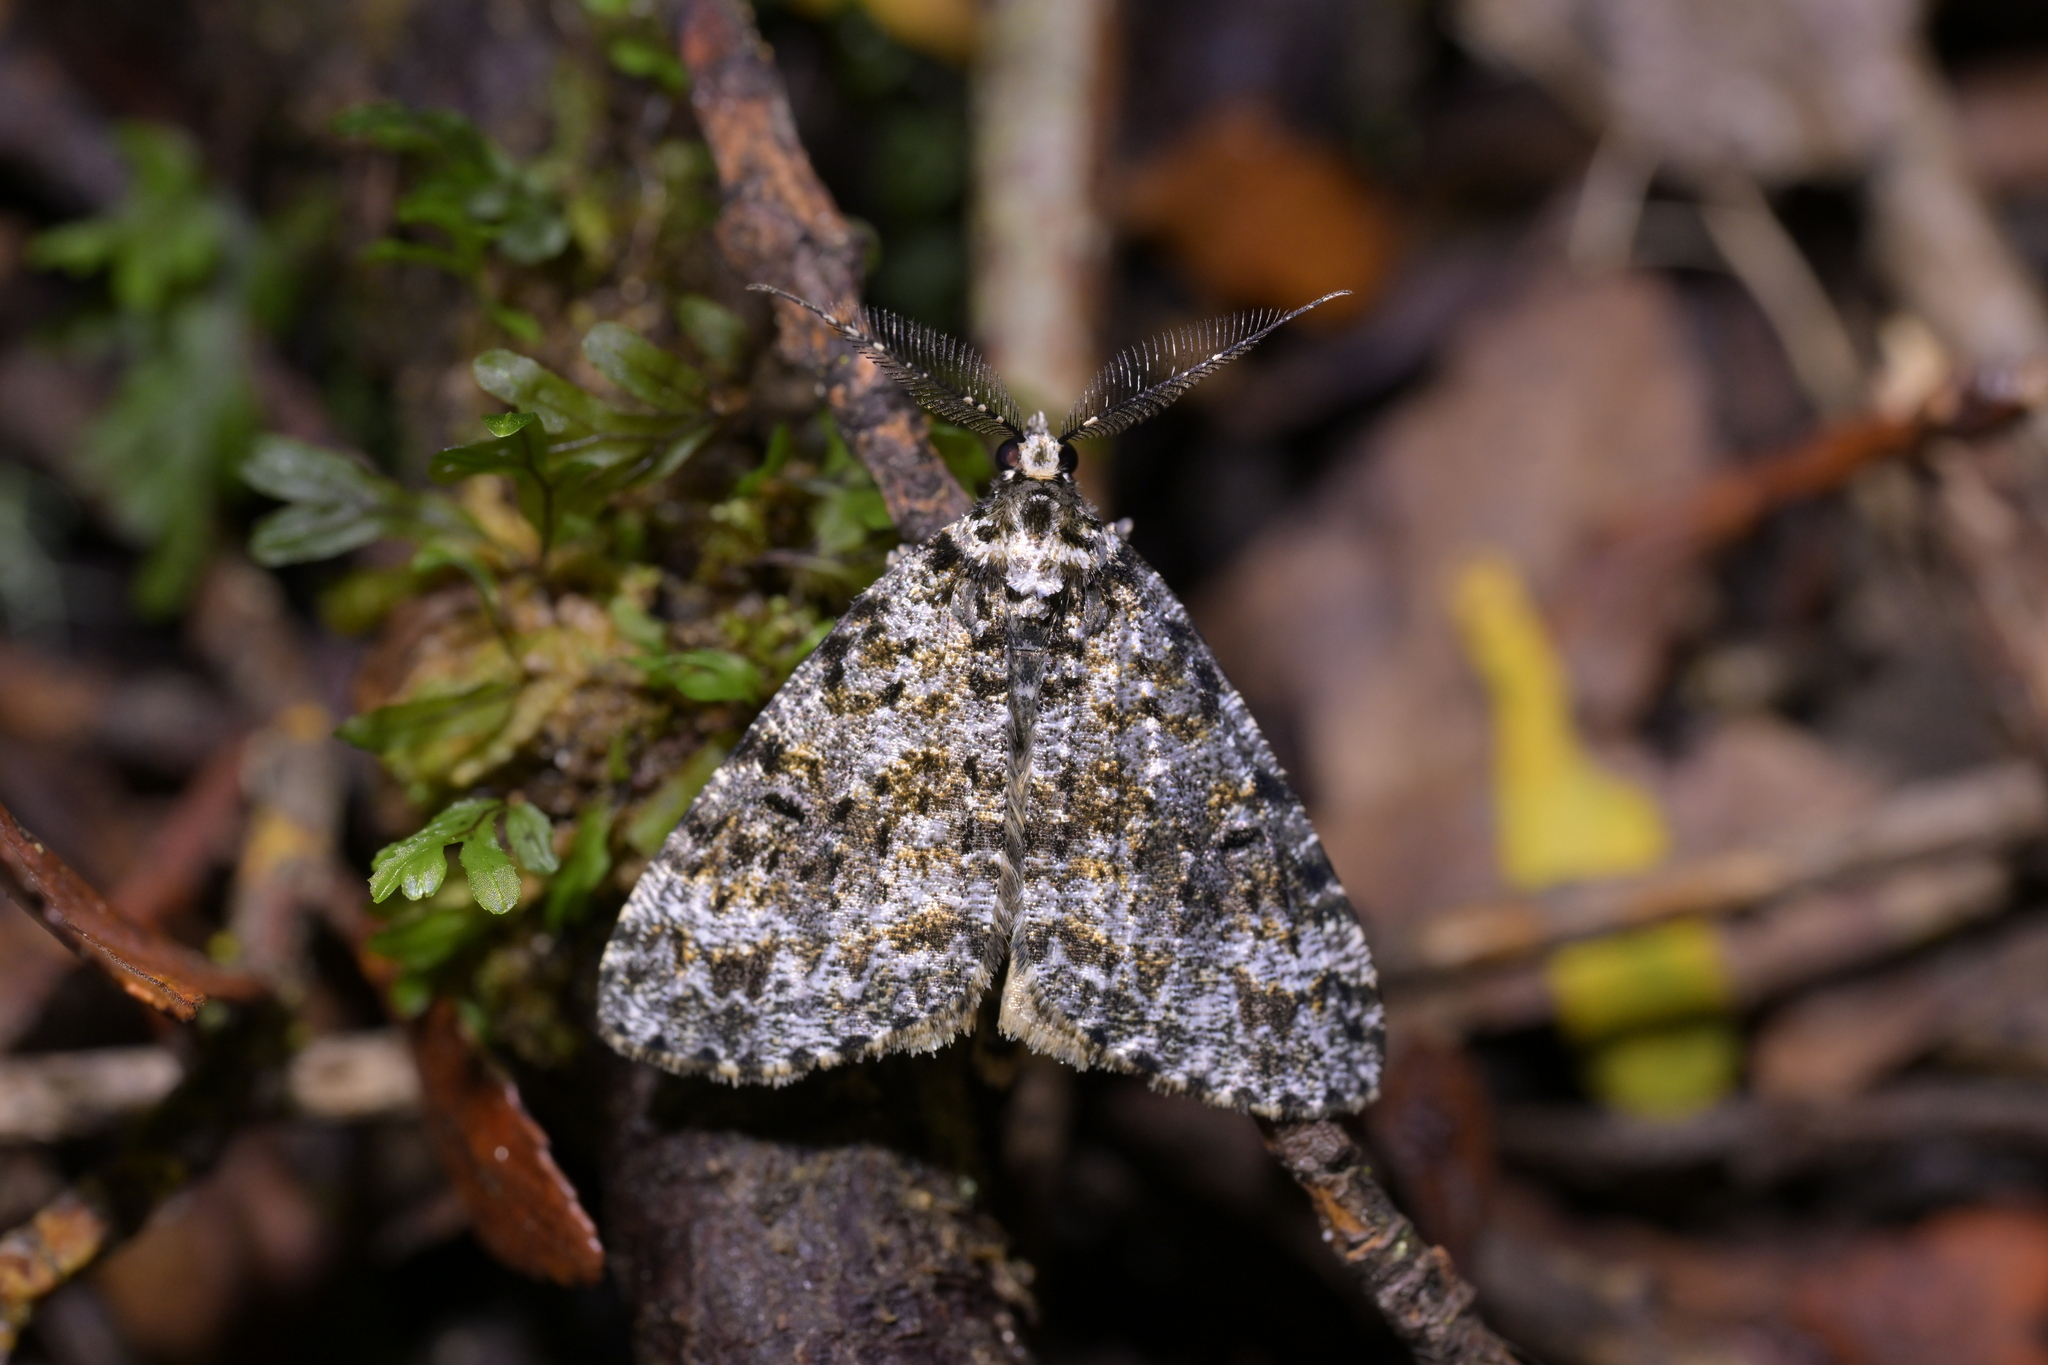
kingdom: Animalia
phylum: Arthropoda
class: Insecta
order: Lepidoptera
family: Geometridae
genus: Pseudocoremia
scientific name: Pseudocoremia monacha
